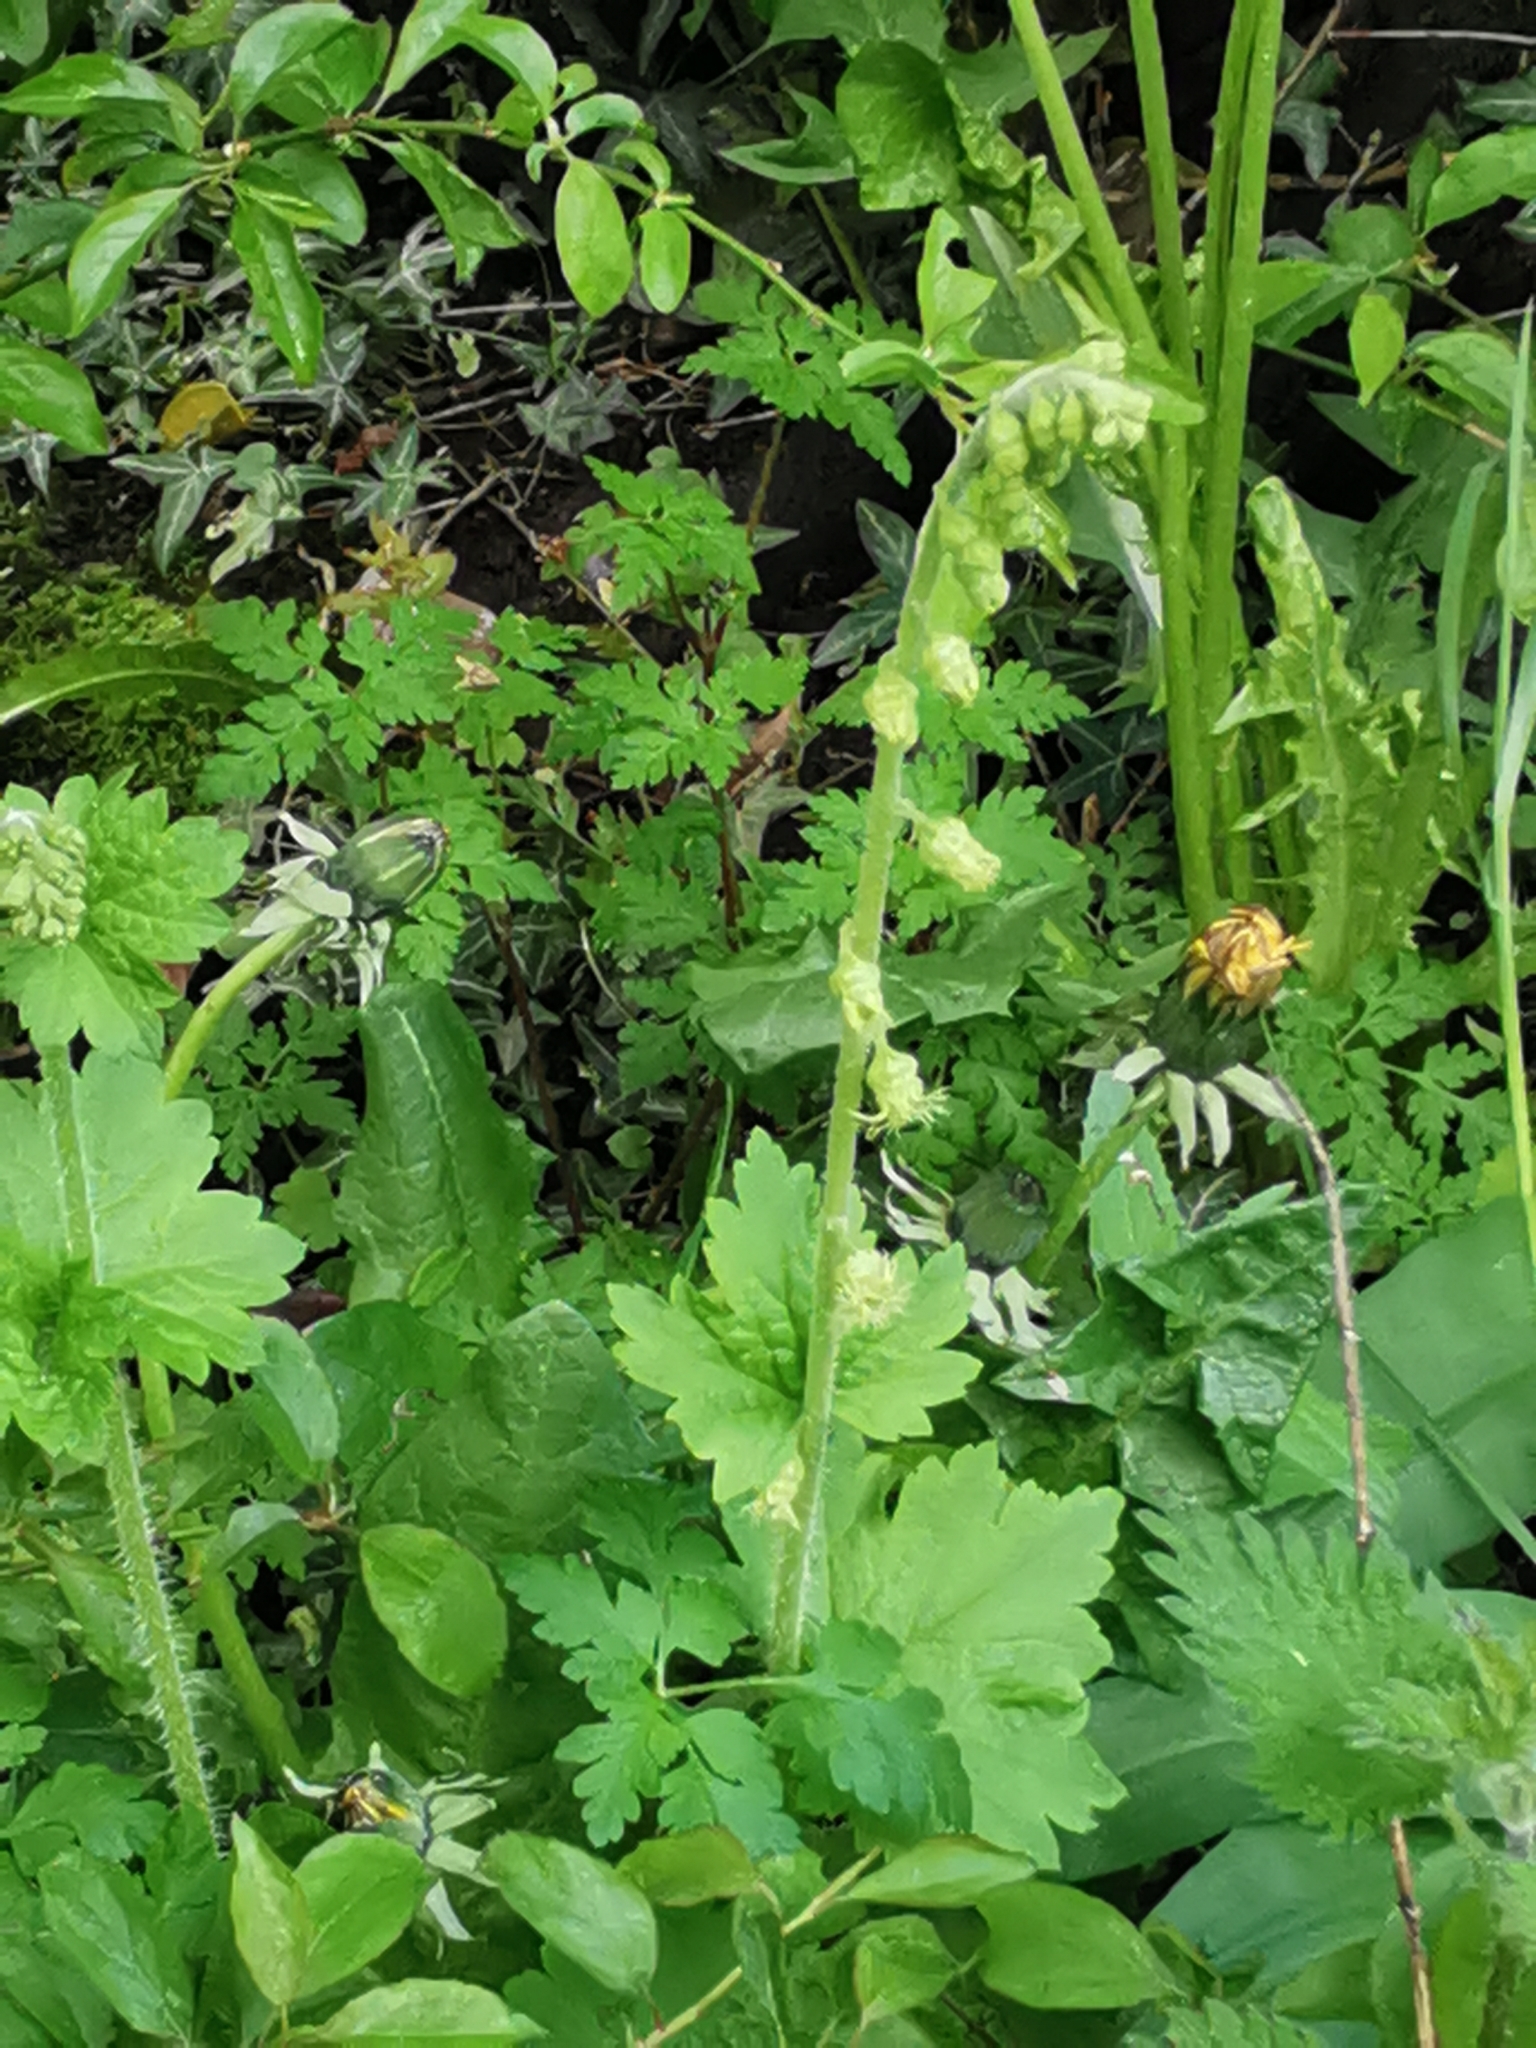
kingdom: Plantae
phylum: Tracheophyta
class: Magnoliopsida
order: Saxifragales
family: Saxifragaceae
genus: Tellima
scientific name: Tellima grandiflora
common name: Fringecups
